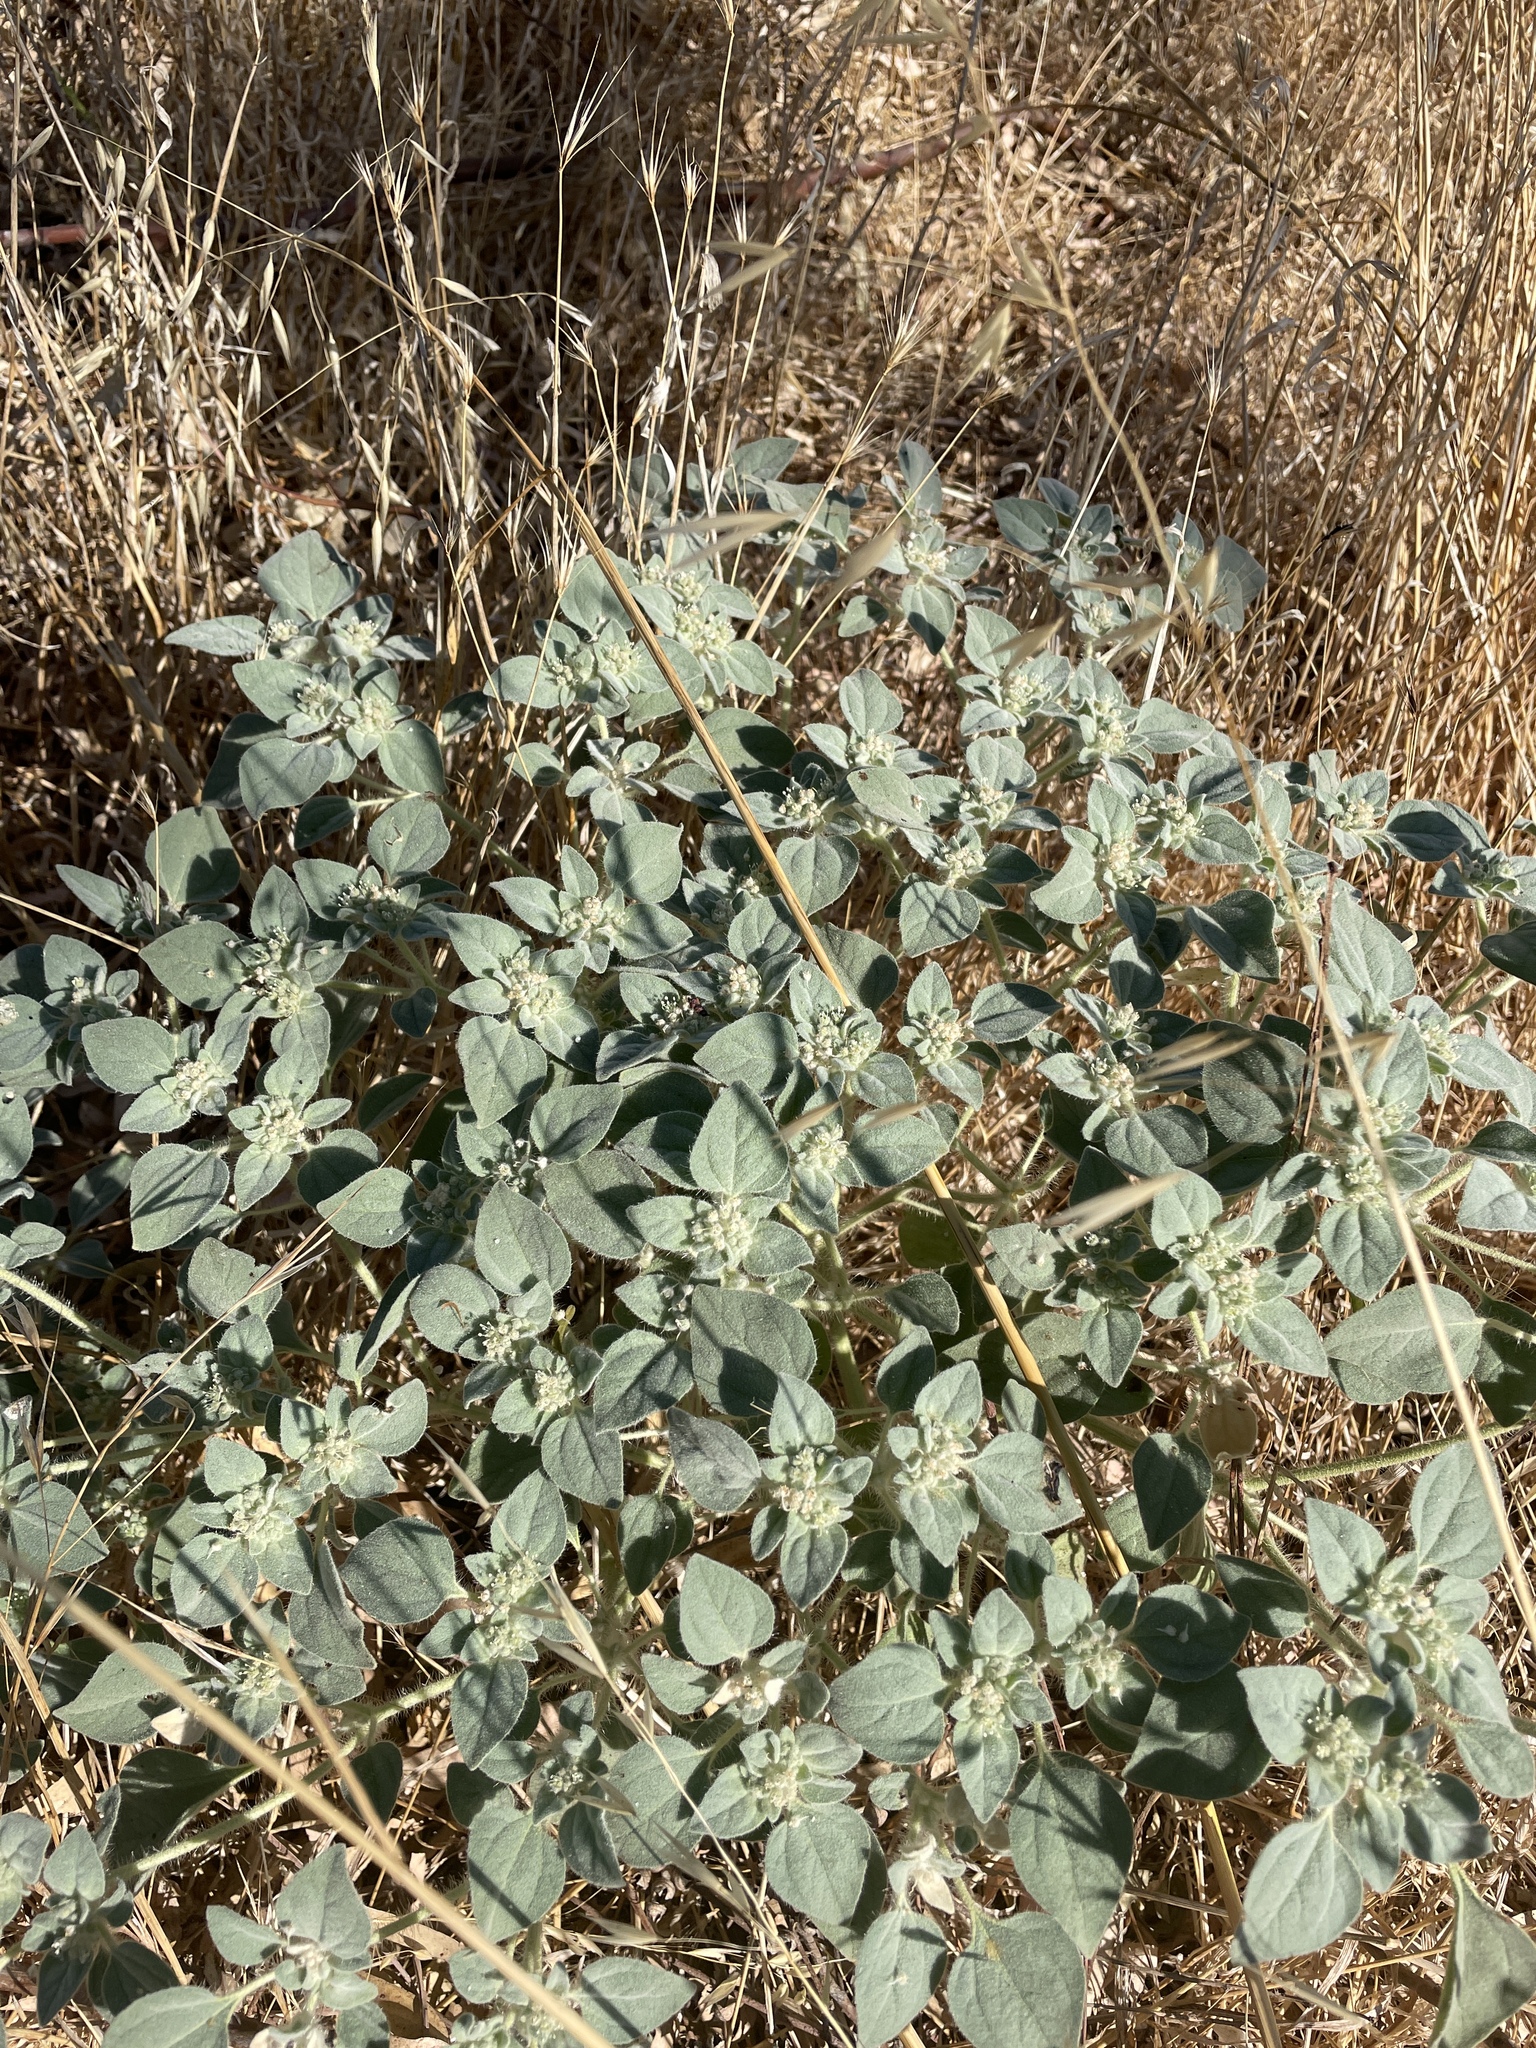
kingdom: Plantae
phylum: Tracheophyta
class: Magnoliopsida
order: Malpighiales
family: Euphorbiaceae
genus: Croton
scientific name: Croton setiger
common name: Dove weed
